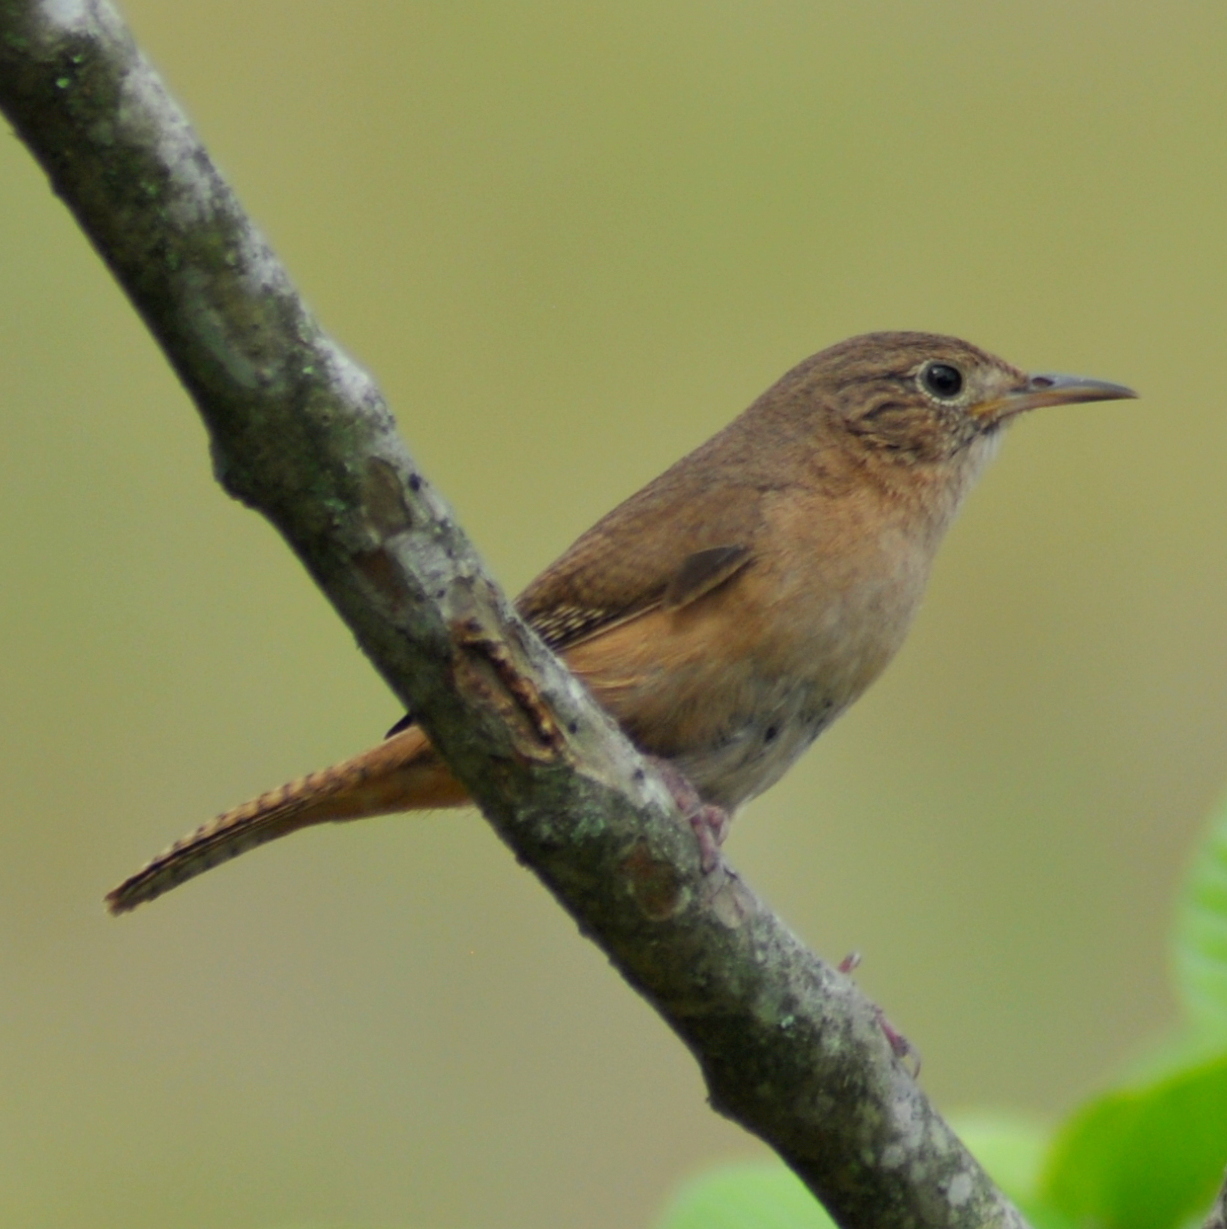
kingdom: Animalia
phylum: Chordata
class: Aves
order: Passeriformes
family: Troglodytidae
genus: Troglodytes
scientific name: Troglodytes aedon
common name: House wren
